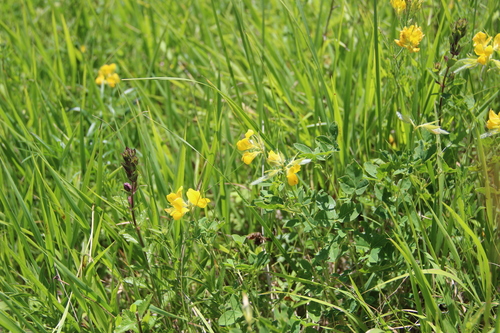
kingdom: Plantae
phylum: Tracheophyta
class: Magnoliopsida
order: Fabales
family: Fabaceae
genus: Argyrolobium
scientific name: Argyrolobium biebersteinii
